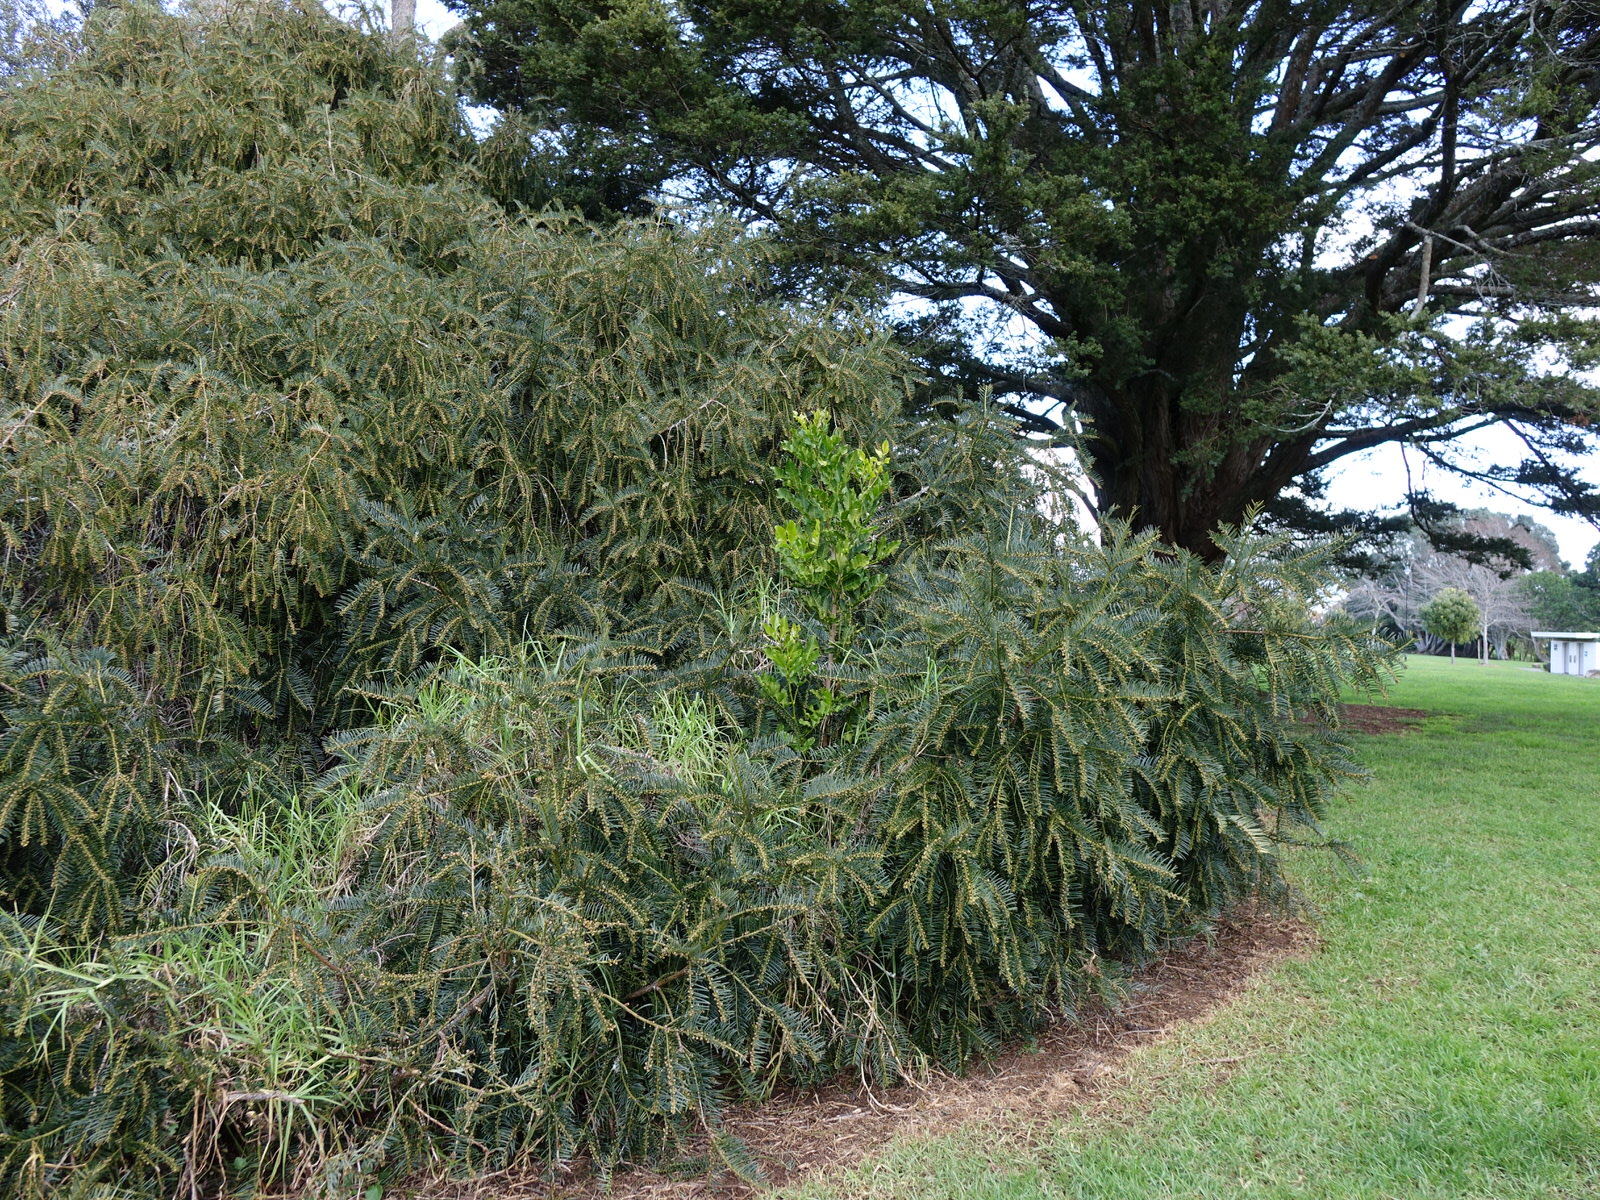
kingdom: Plantae
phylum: Tracheophyta
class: Magnoliopsida
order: Sapindales
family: Meliaceae
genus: Didymocheton
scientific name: Didymocheton spectabilis
